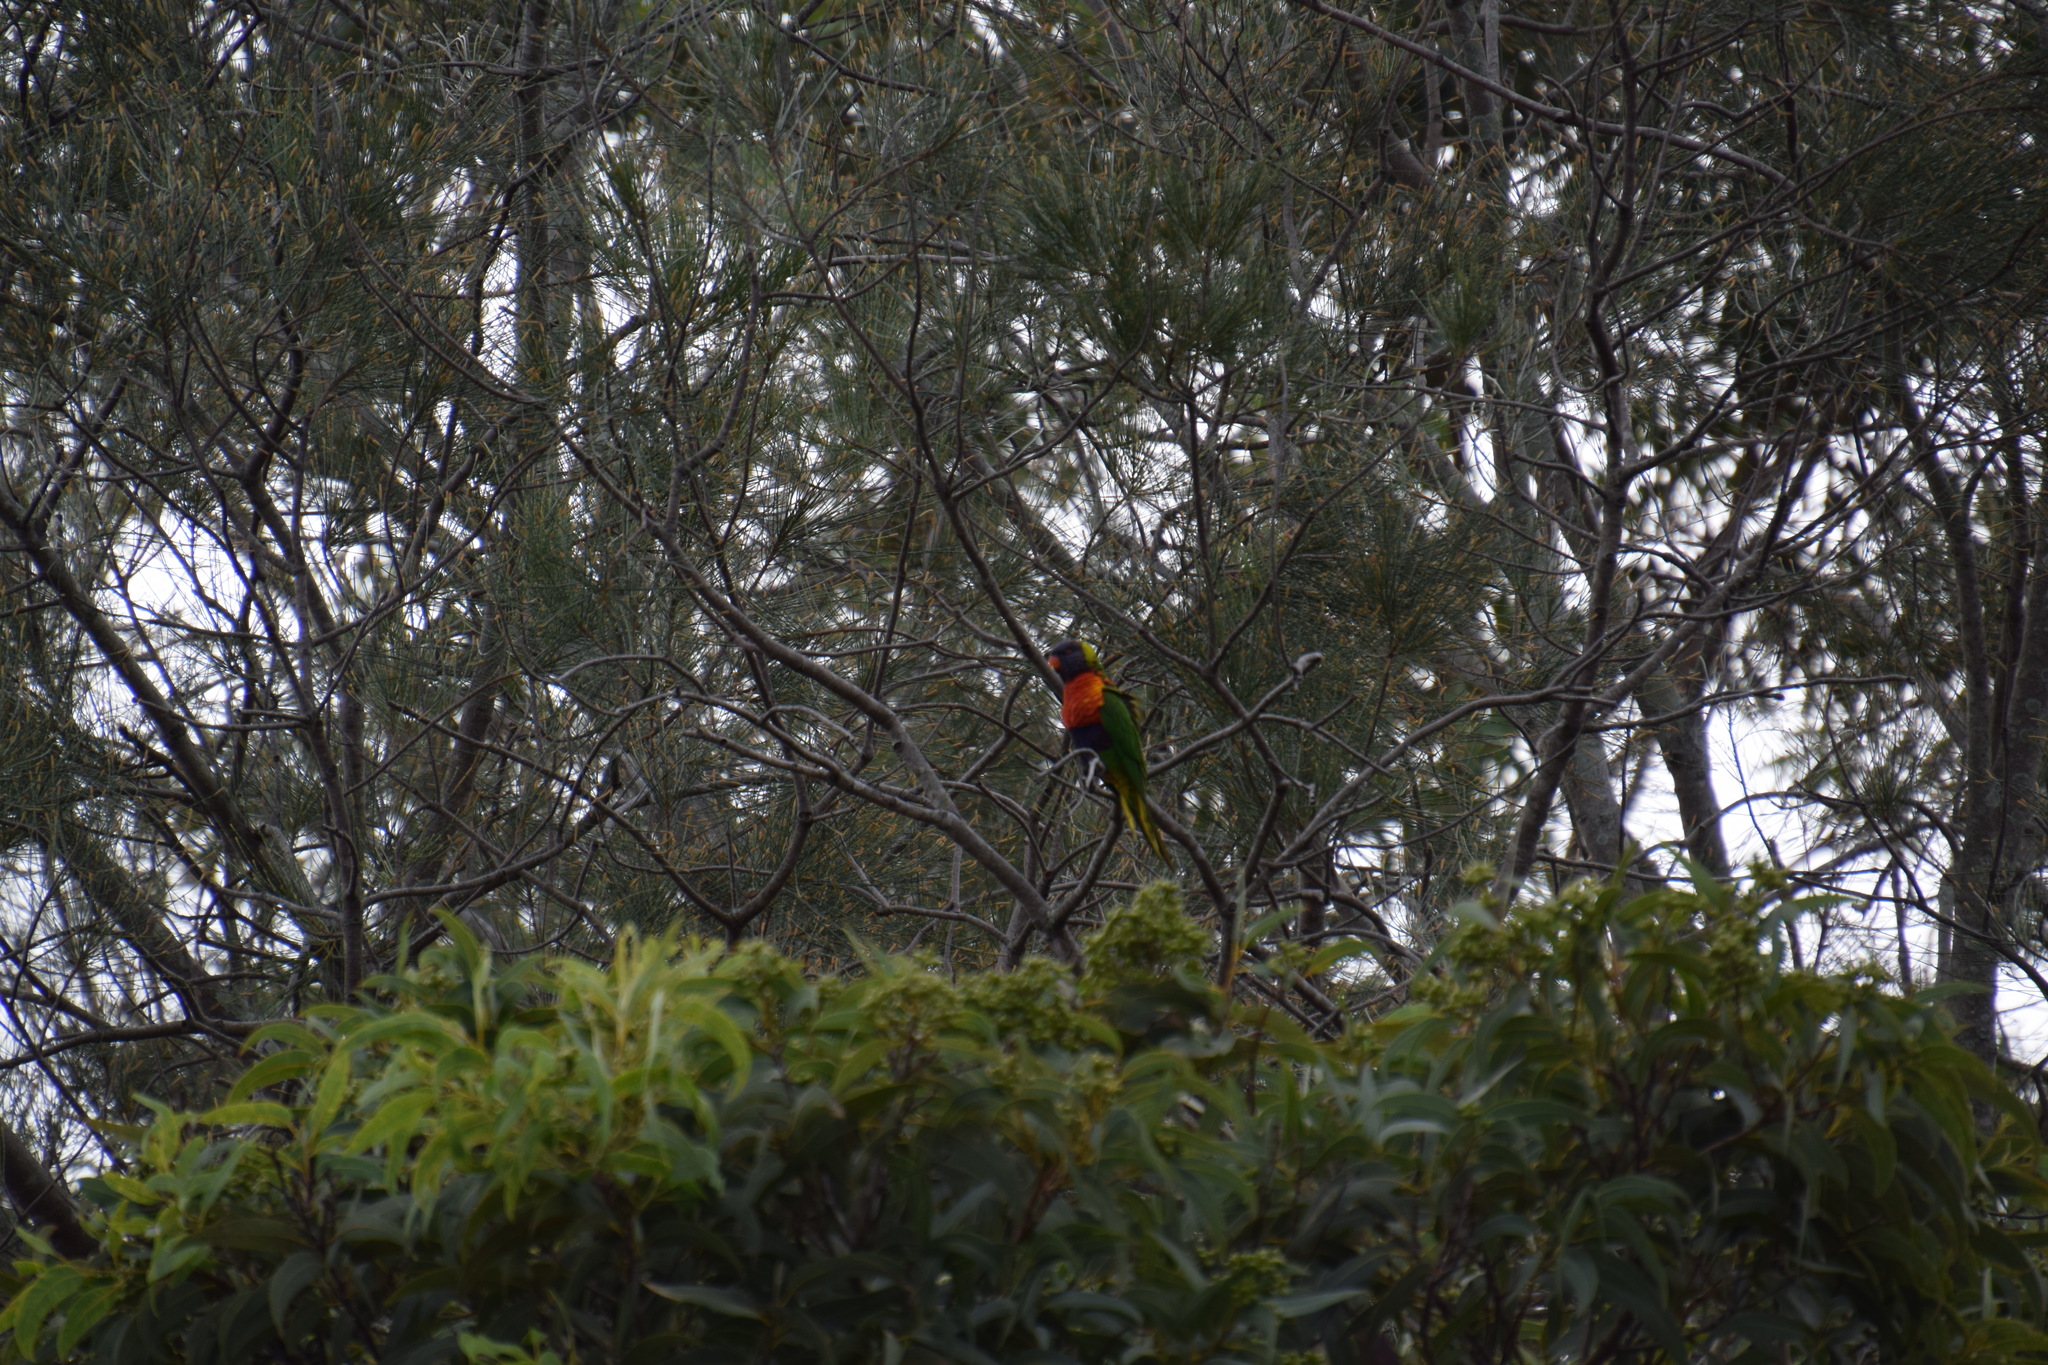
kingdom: Animalia
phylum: Chordata
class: Aves
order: Psittaciformes
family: Psittacidae
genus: Trichoglossus
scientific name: Trichoglossus haematodus
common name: Coconut lorikeet
